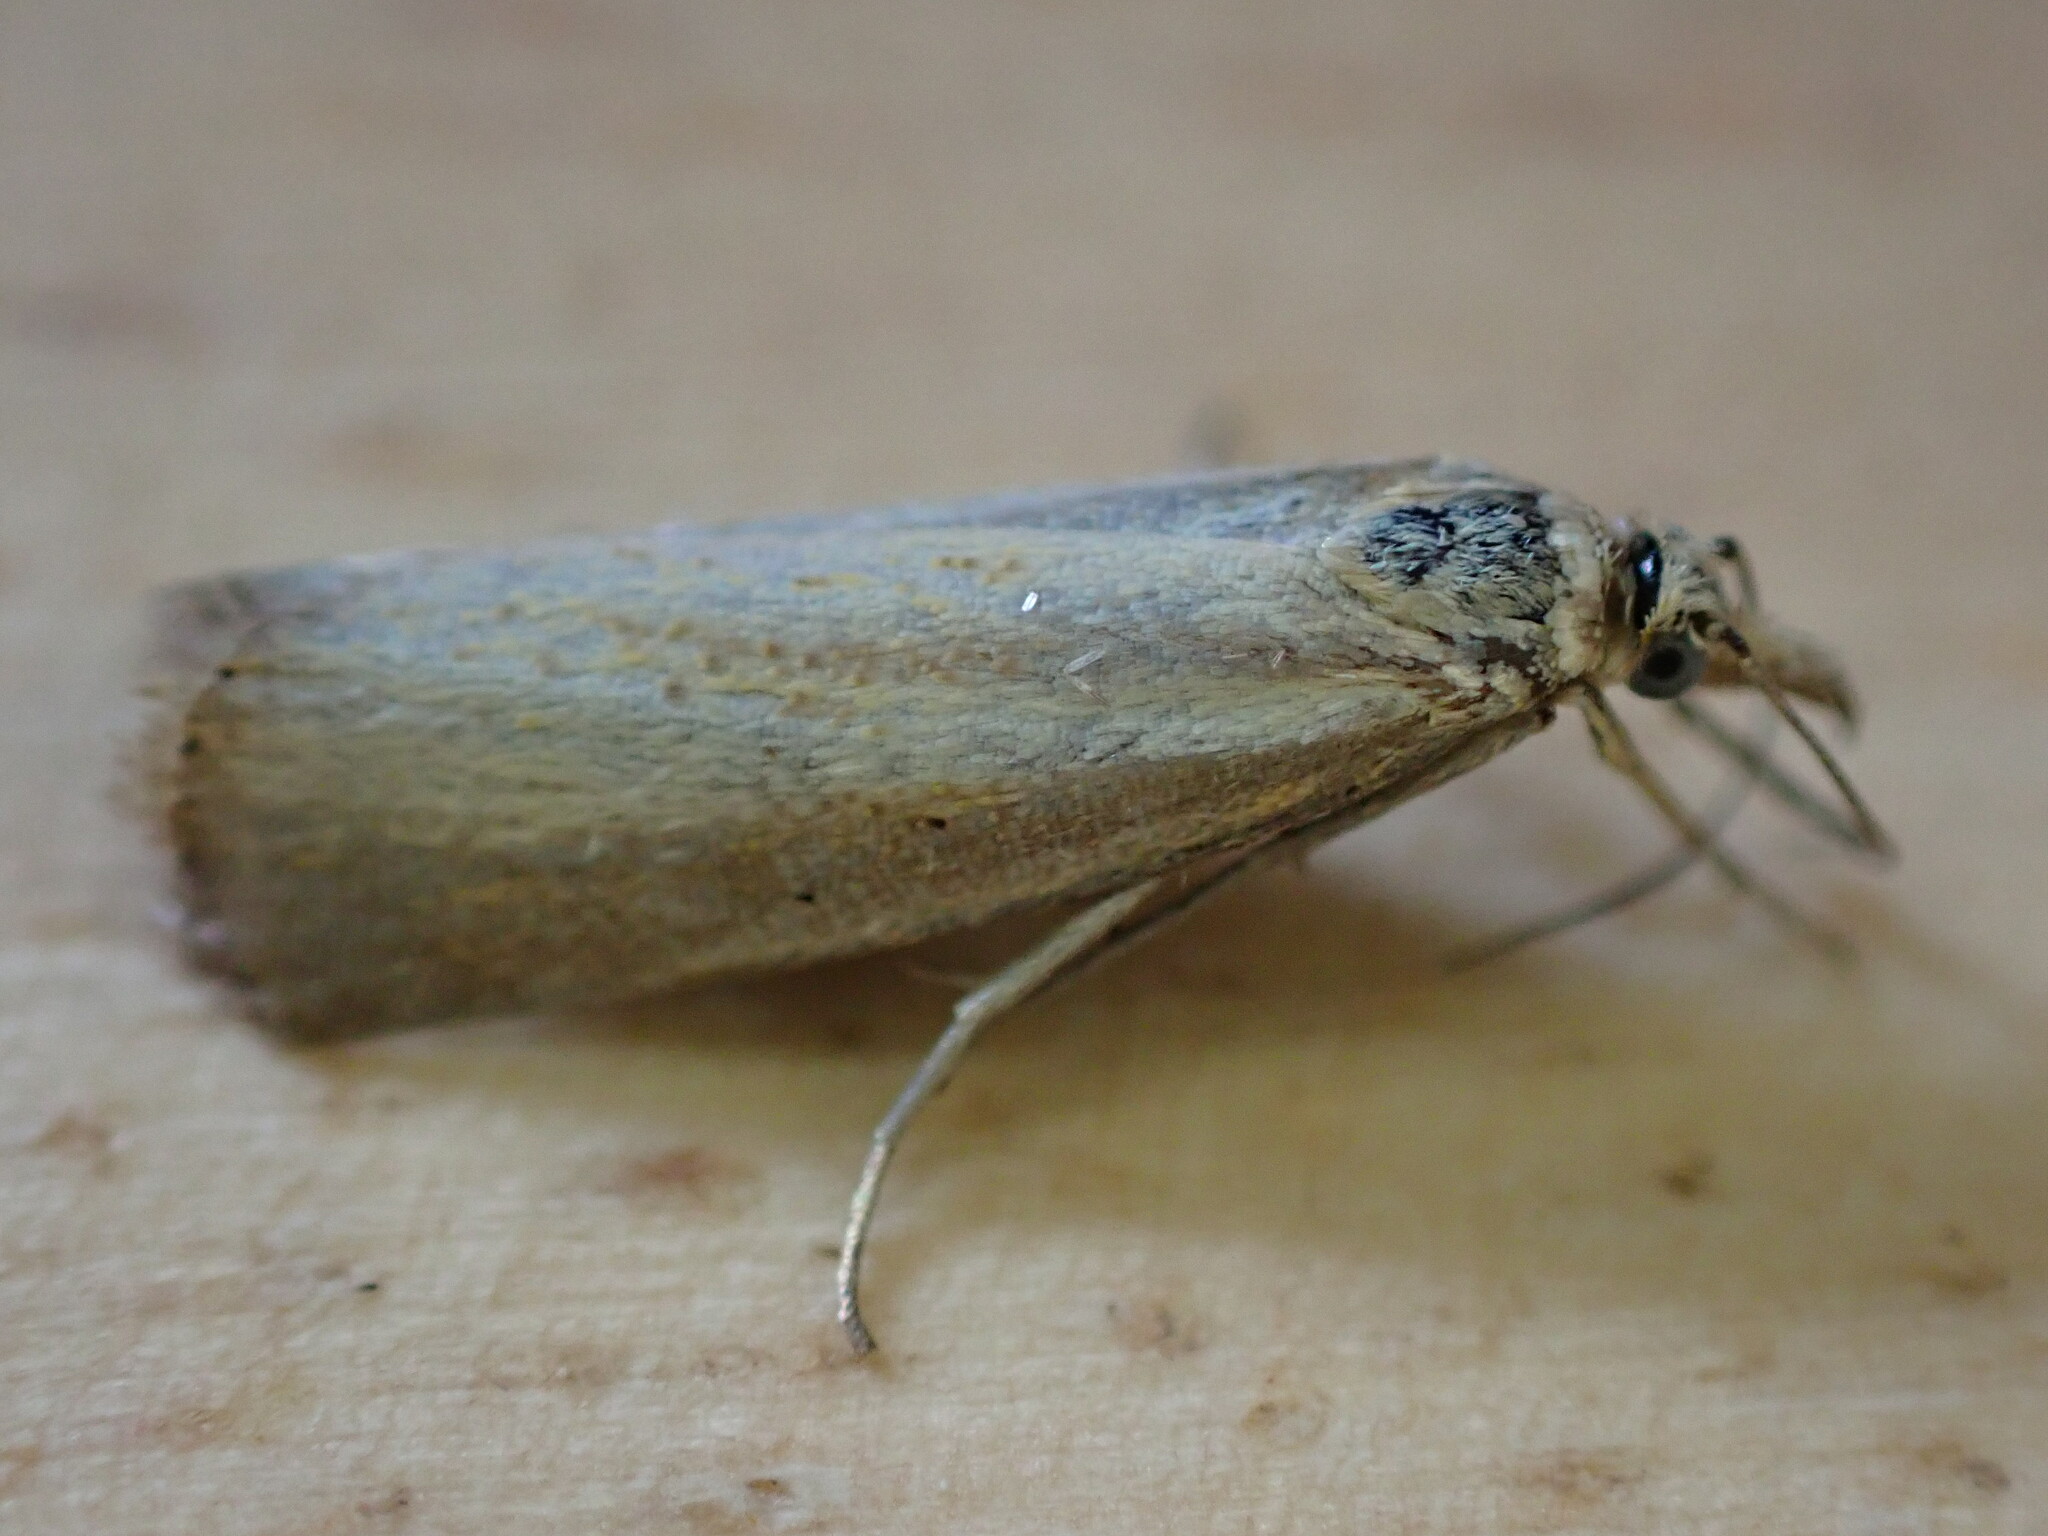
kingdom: Animalia
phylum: Arthropoda
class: Insecta
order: Lepidoptera
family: Crambidae
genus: Agriphila
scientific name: Agriphila straminella
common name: Straw grass-veneer
